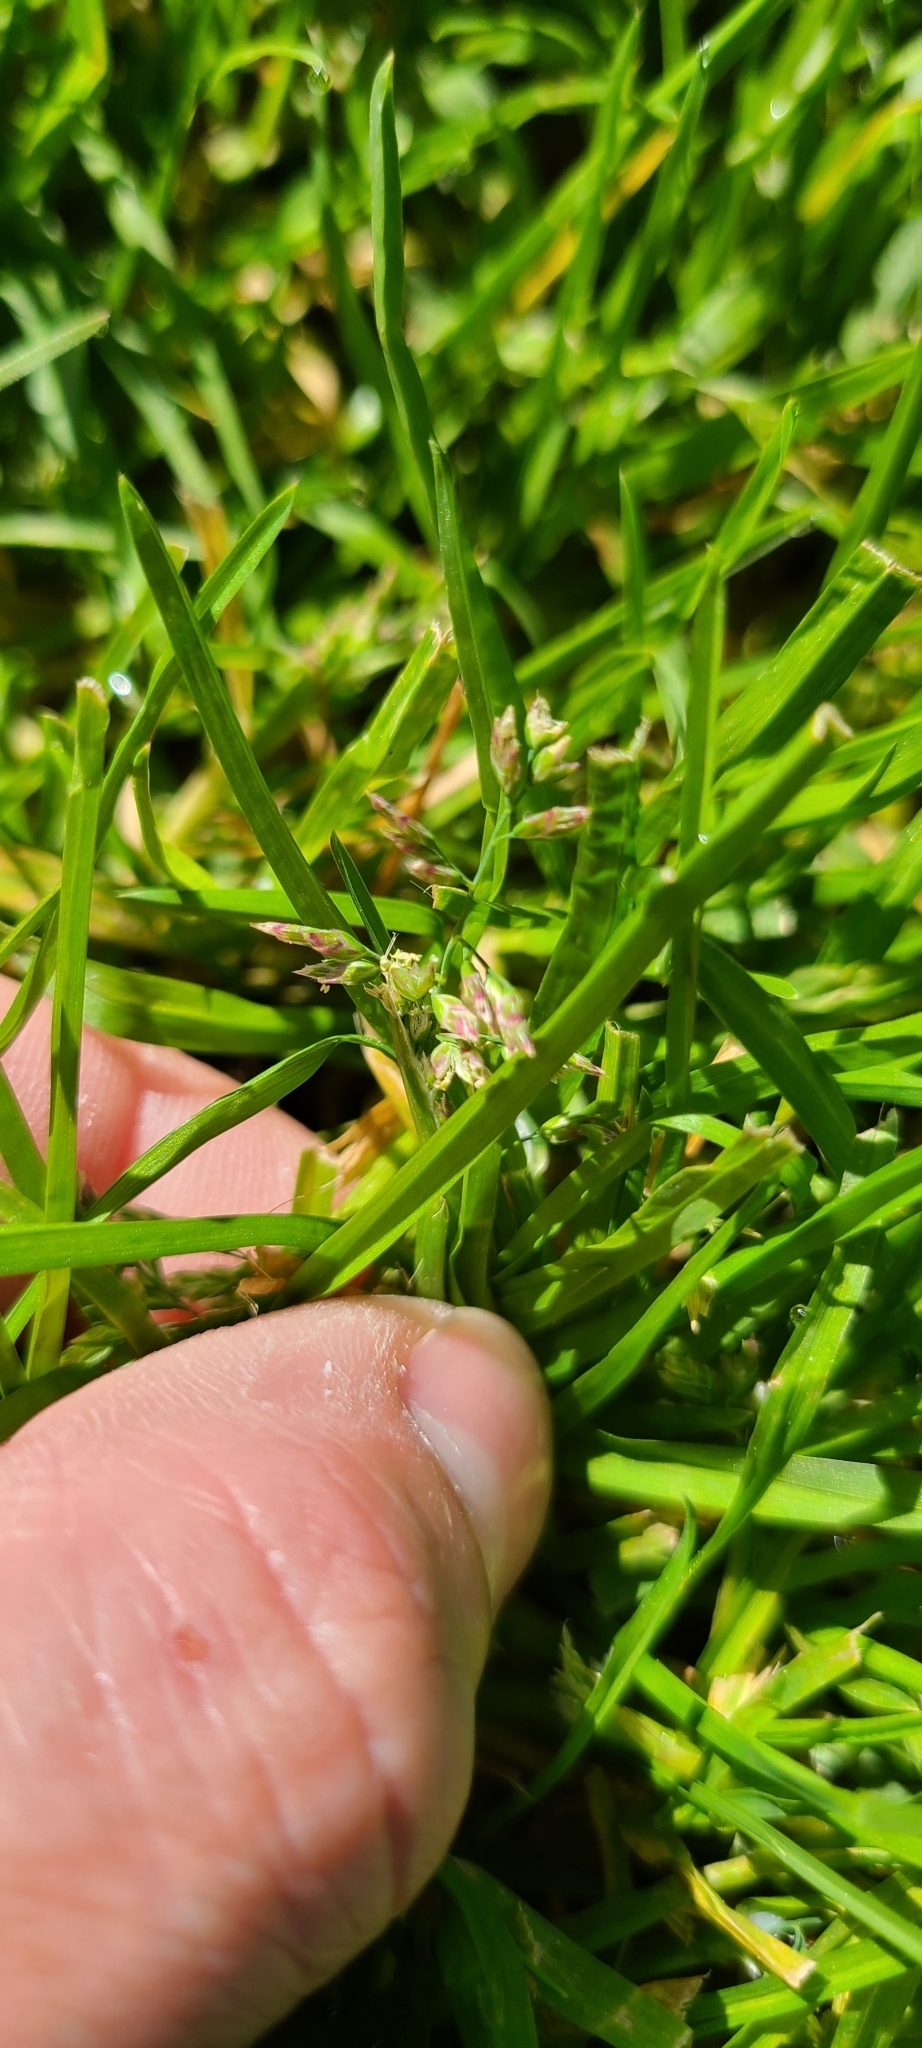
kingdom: Plantae
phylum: Tracheophyta
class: Liliopsida
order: Poales
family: Poaceae
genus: Poa
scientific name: Poa annua
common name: Annual bluegrass
